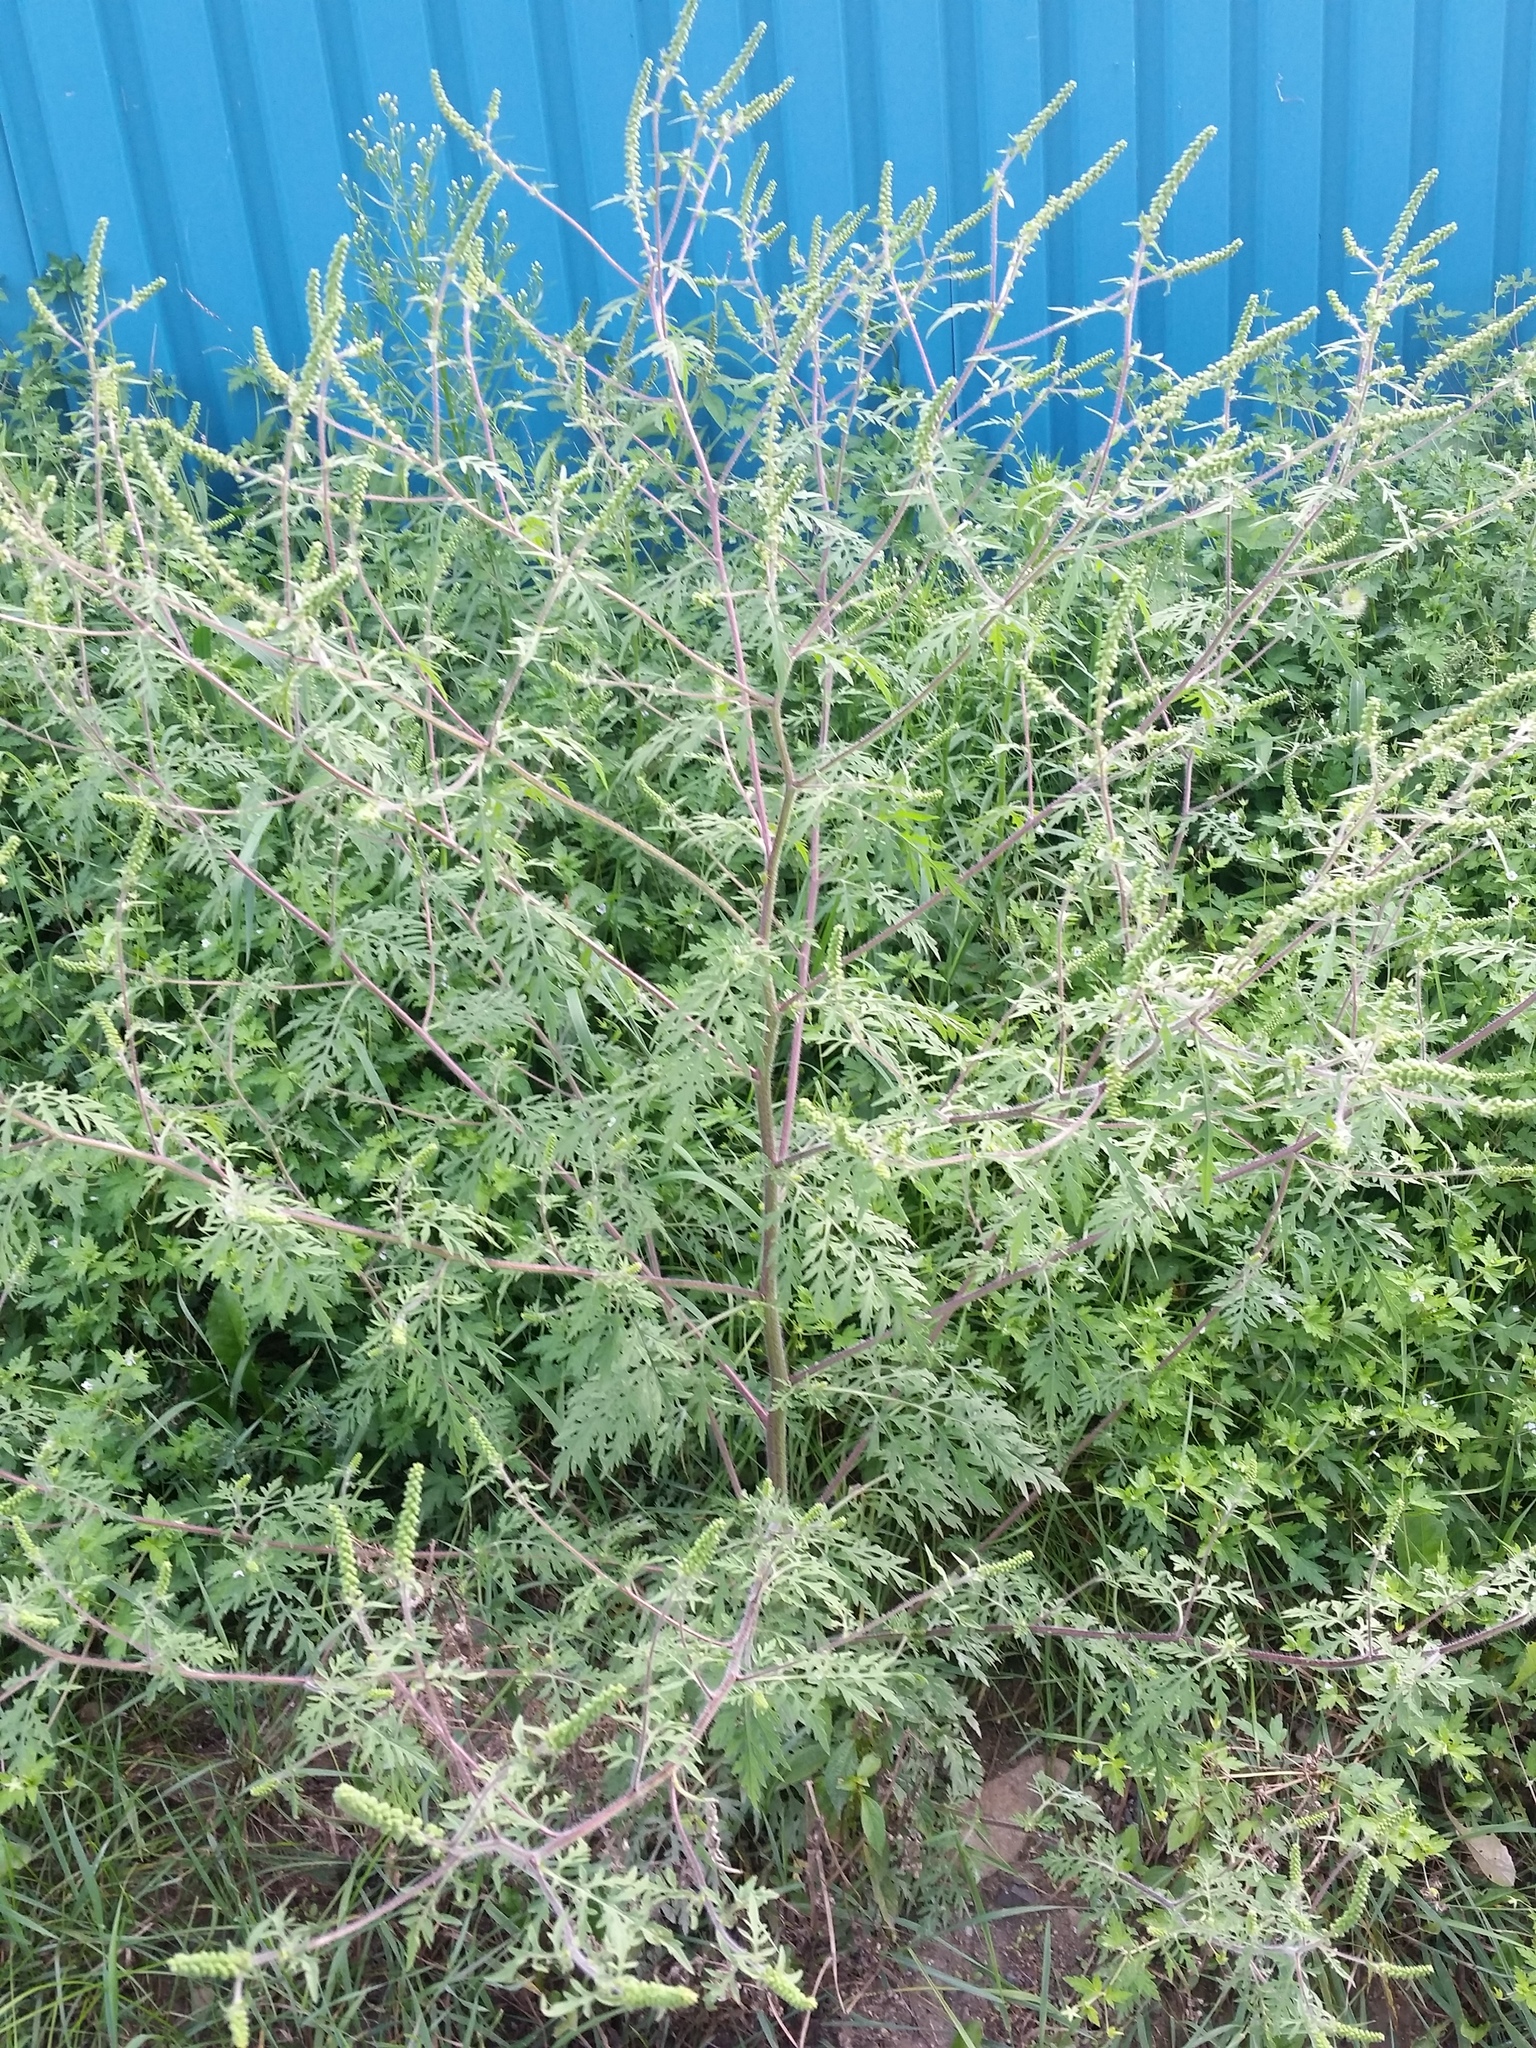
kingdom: Plantae
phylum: Tracheophyta
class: Magnoliopsida
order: Asterales
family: Asteraceae
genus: Ambrosia
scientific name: Ambrosia artemisiifolia
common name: Annual ragweed
